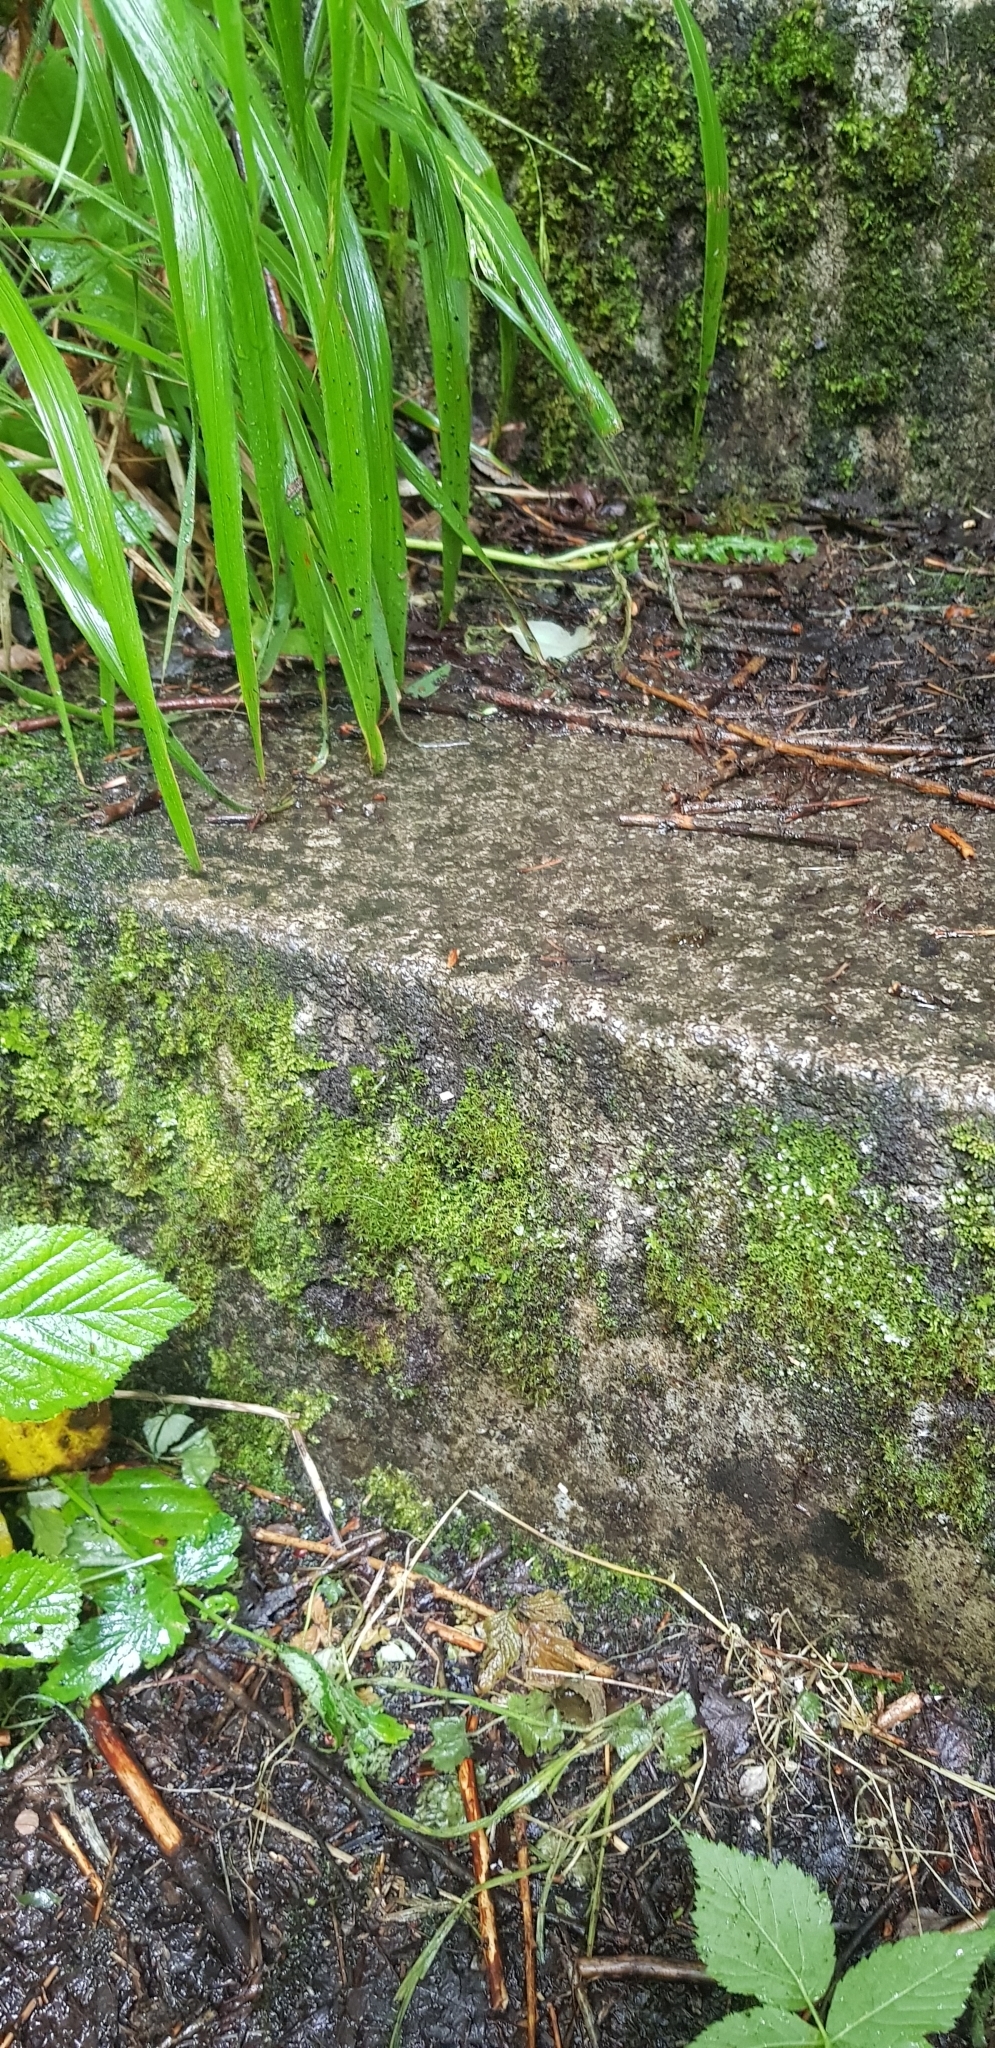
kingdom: Plantae
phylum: Bryophyta
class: Bryopsida
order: Encalyptales
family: Encalyptaceae
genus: Encalypta
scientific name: Encalypta streptocarpa
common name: Spiral extinguisher-moss
